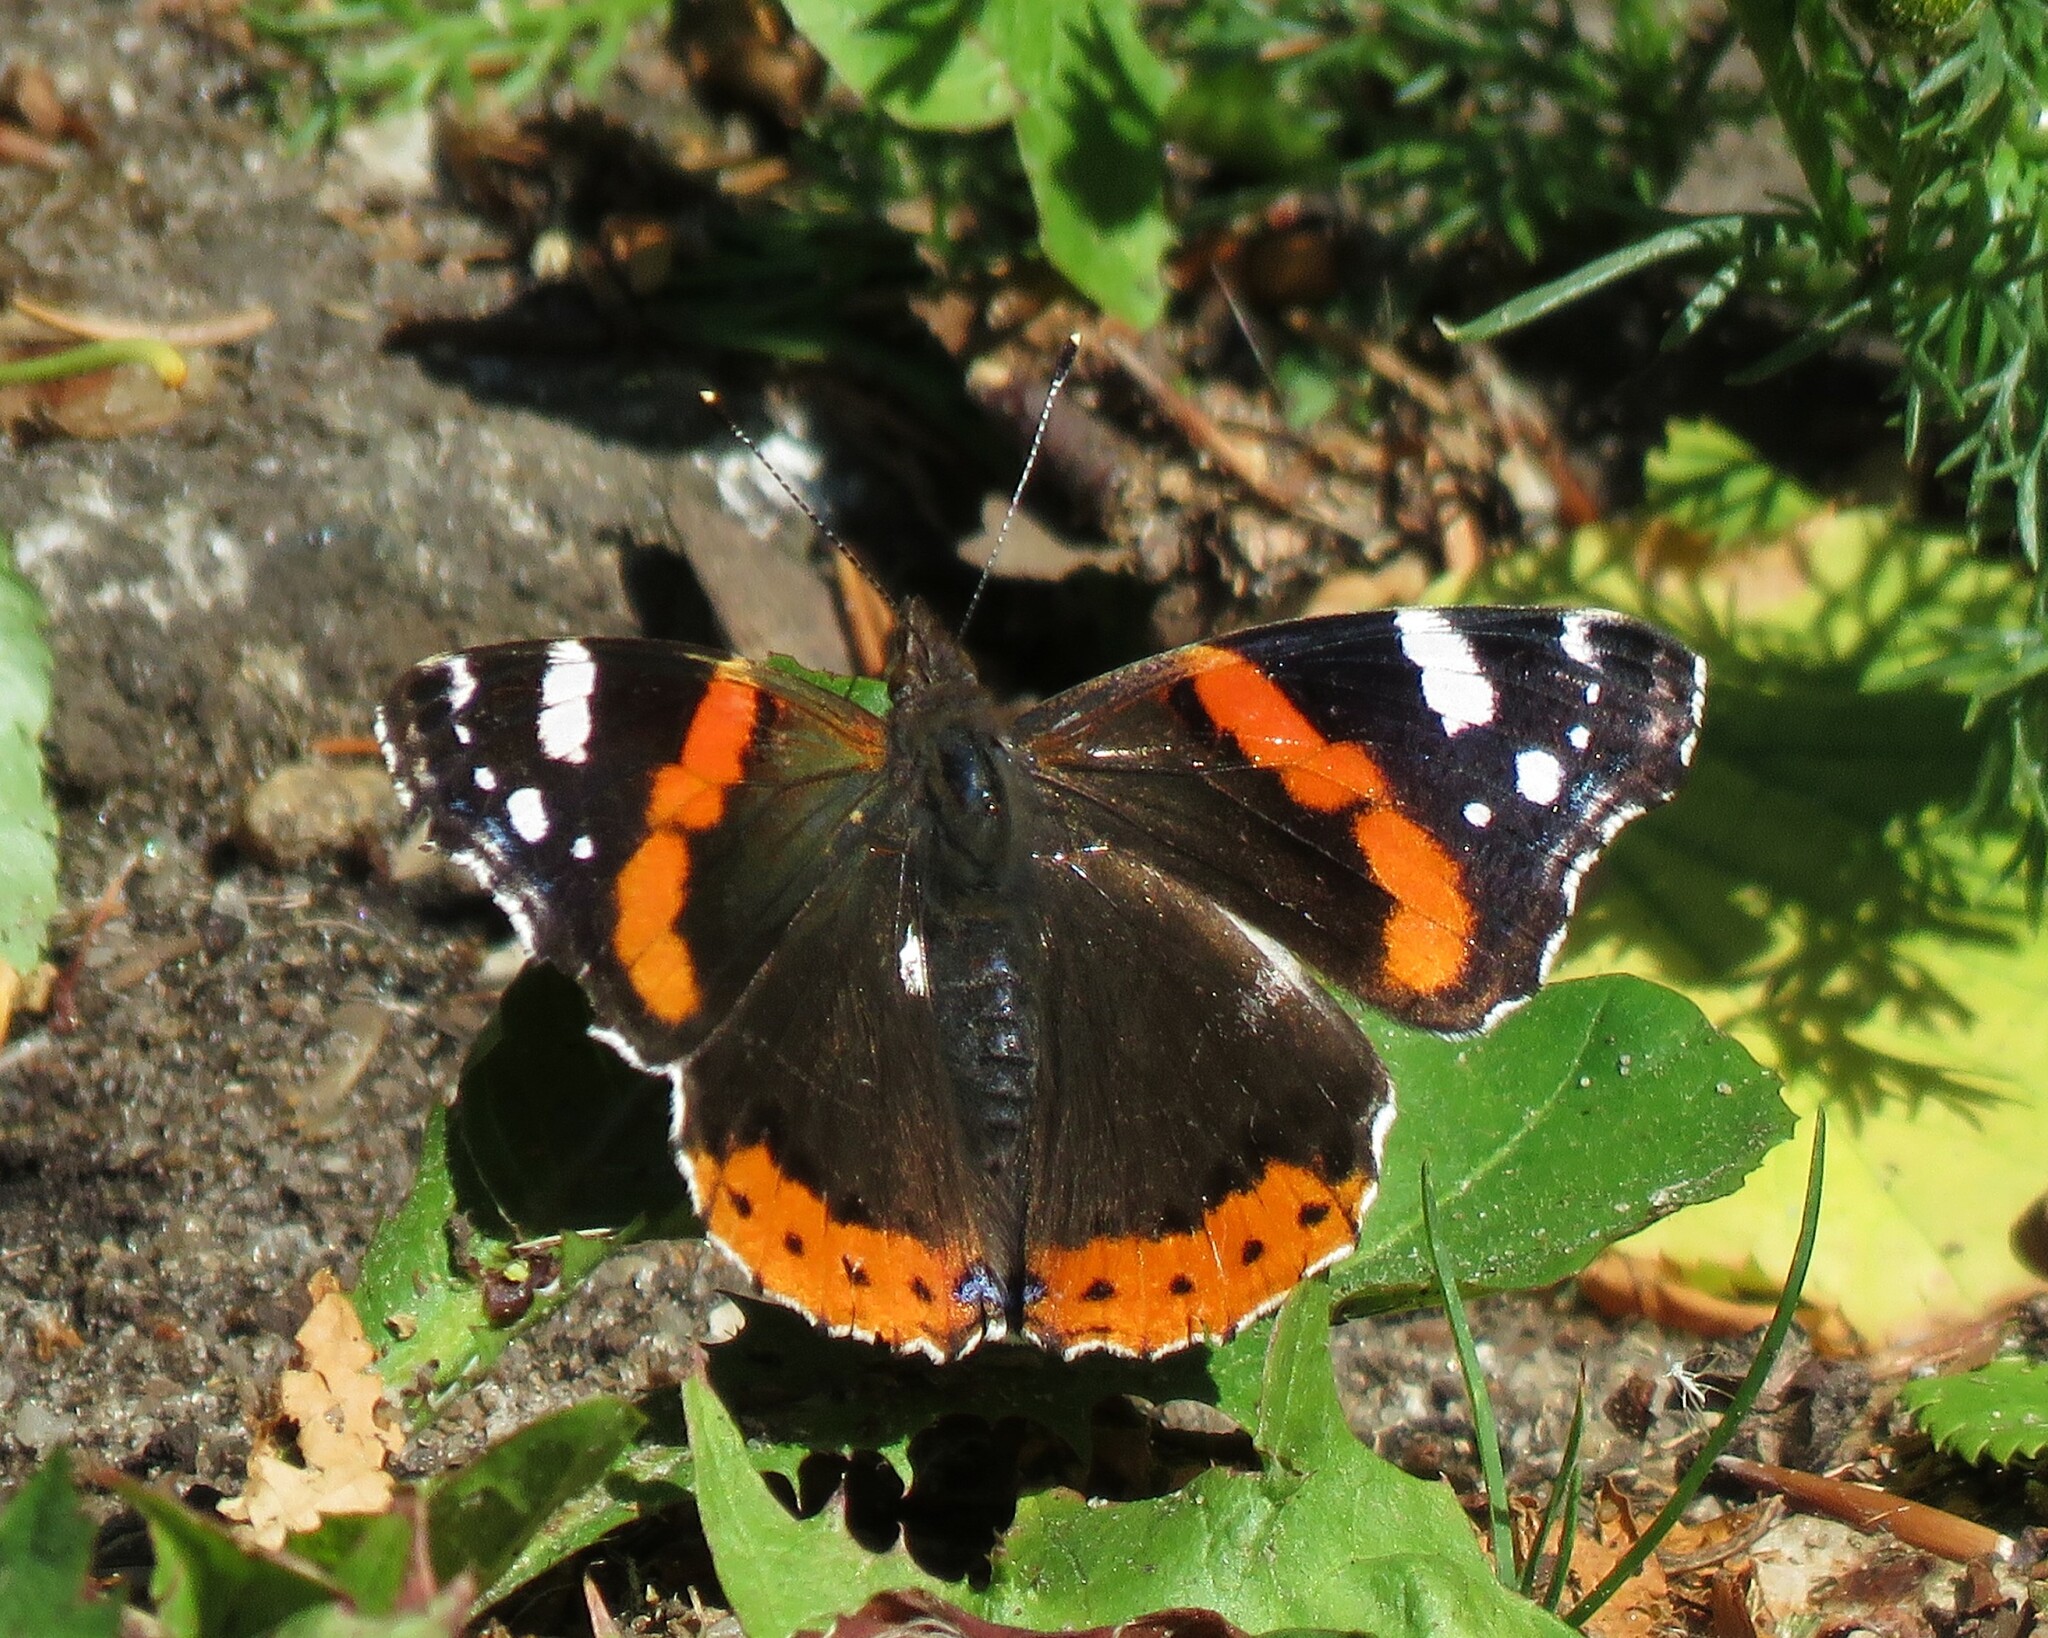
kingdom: Animalia
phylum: Arthropoda
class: Insecta
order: Lepidoptera
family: Nymphalidae
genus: Vanessa
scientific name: Vanessa atalanta
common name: Red admiral
